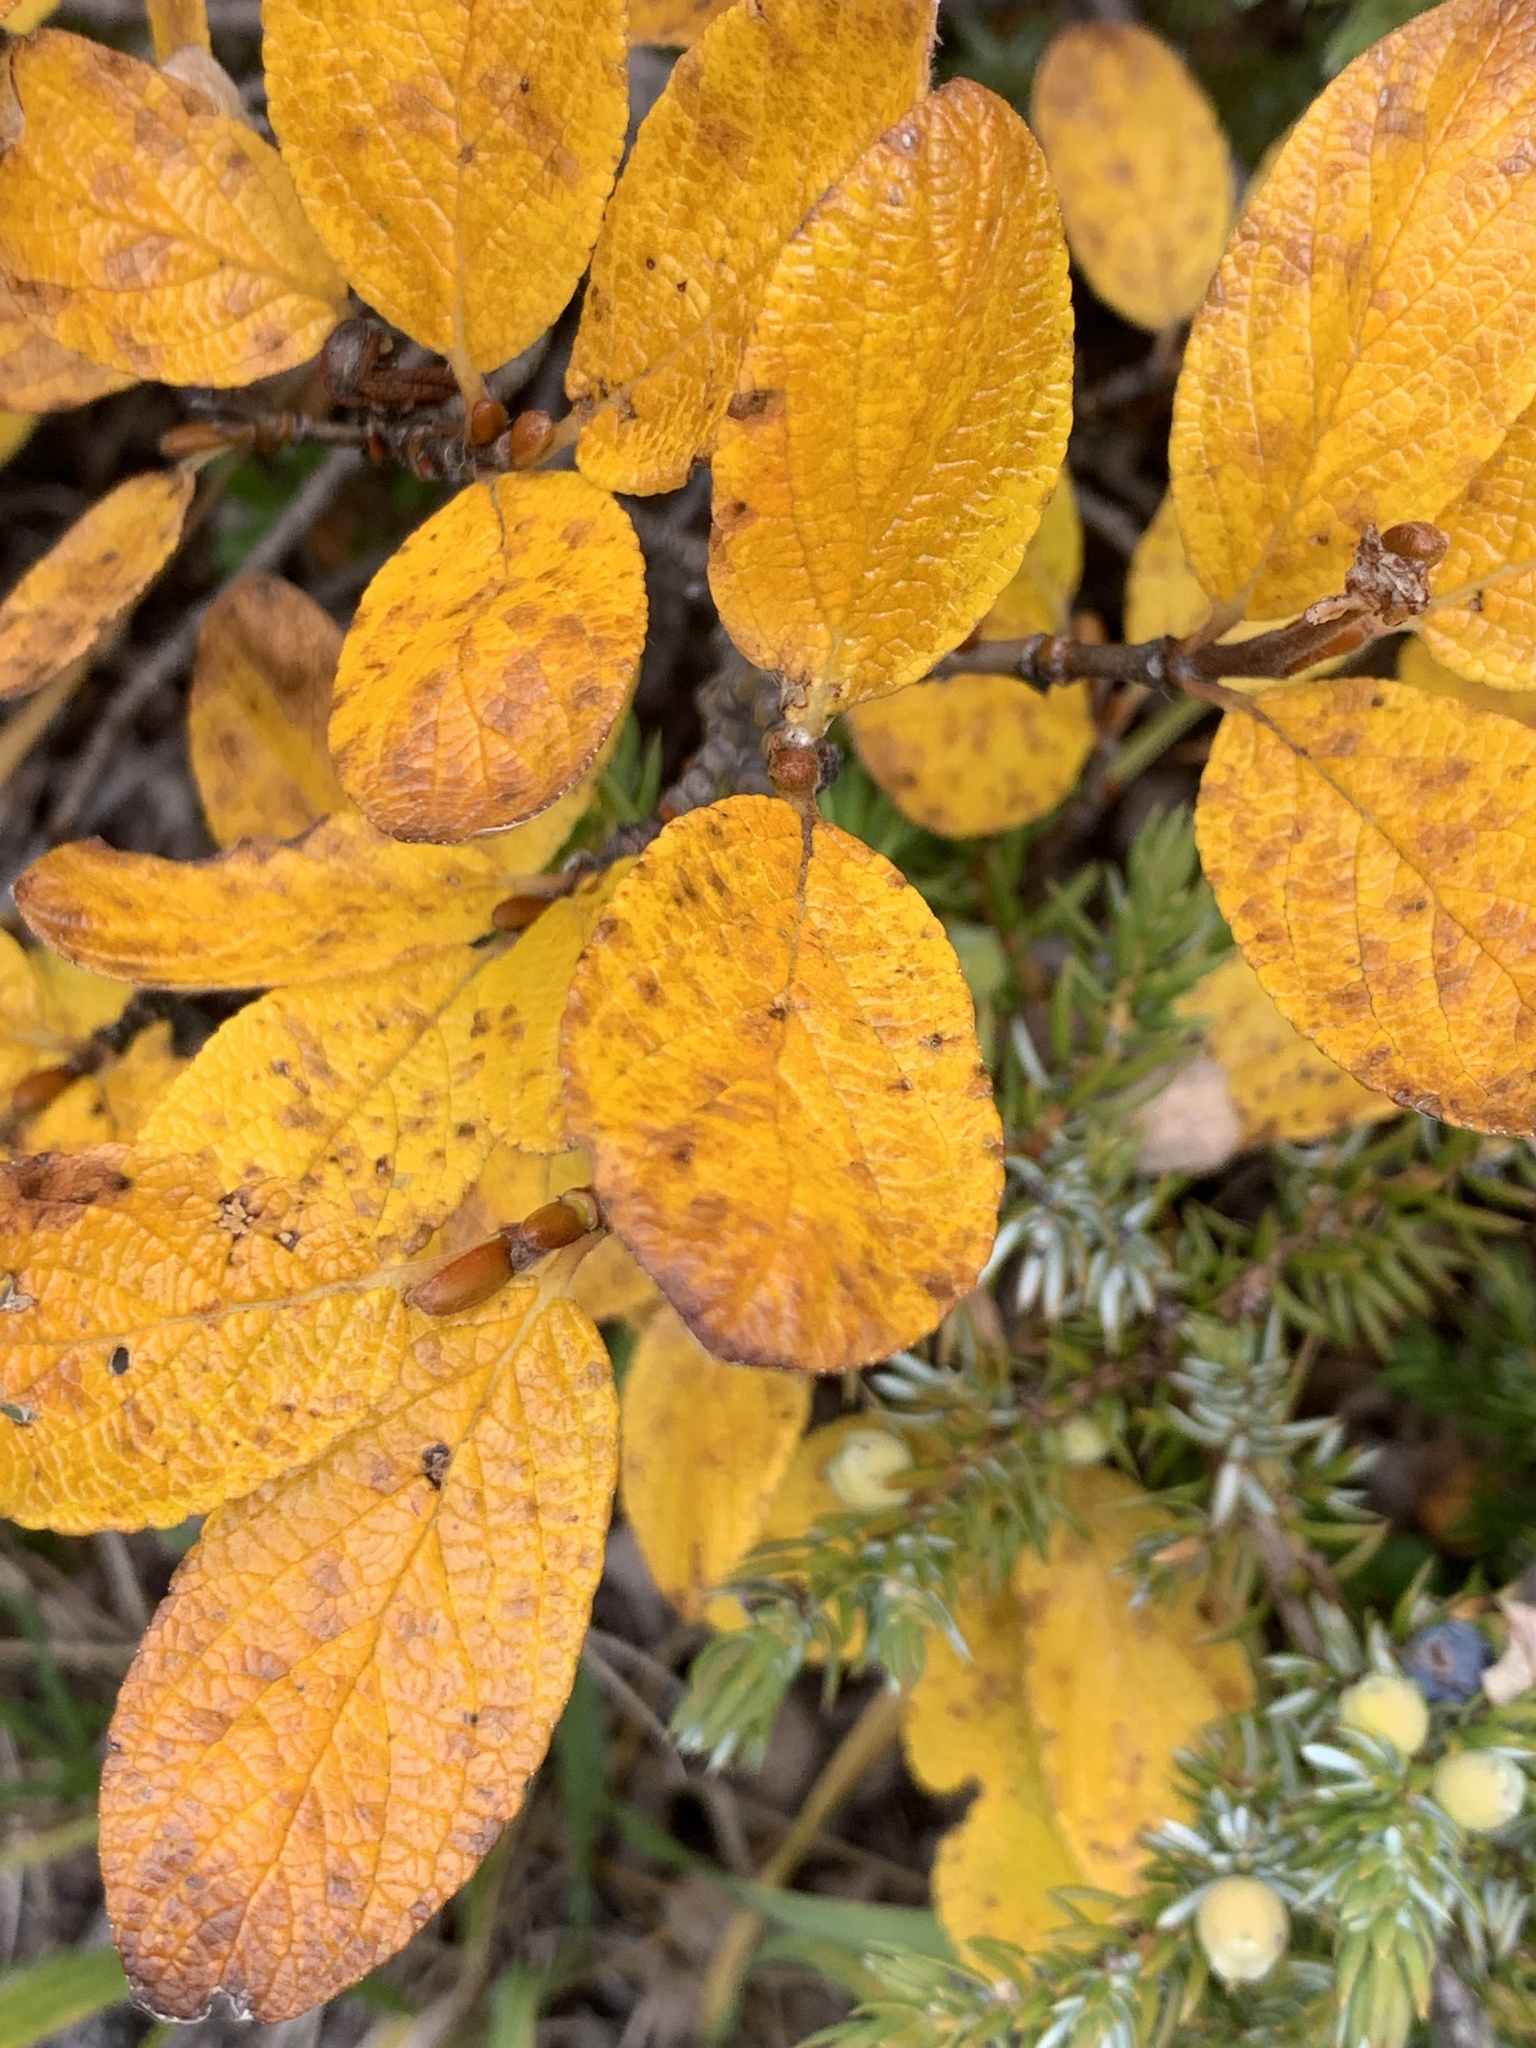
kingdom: Plantae
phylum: Tracheophyta
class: Magnoliopsida
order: Malpighiales
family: Salicaceae
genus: Salix
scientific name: Salix vestita
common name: Hairy willow
